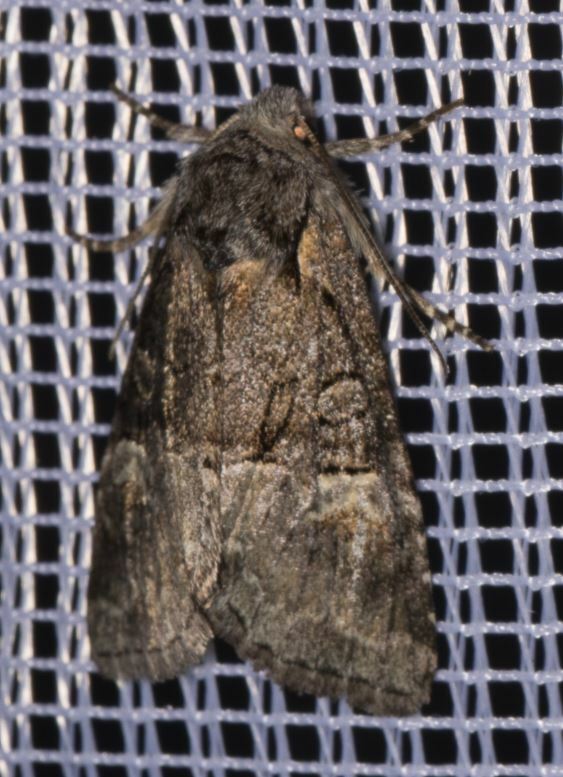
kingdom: Animalia
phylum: Arthropoda
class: Insecta
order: Lepidoptera
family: Noctuidae
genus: Brachylomia
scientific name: Brachylomia viminalis
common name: Minor shoulder-knot
